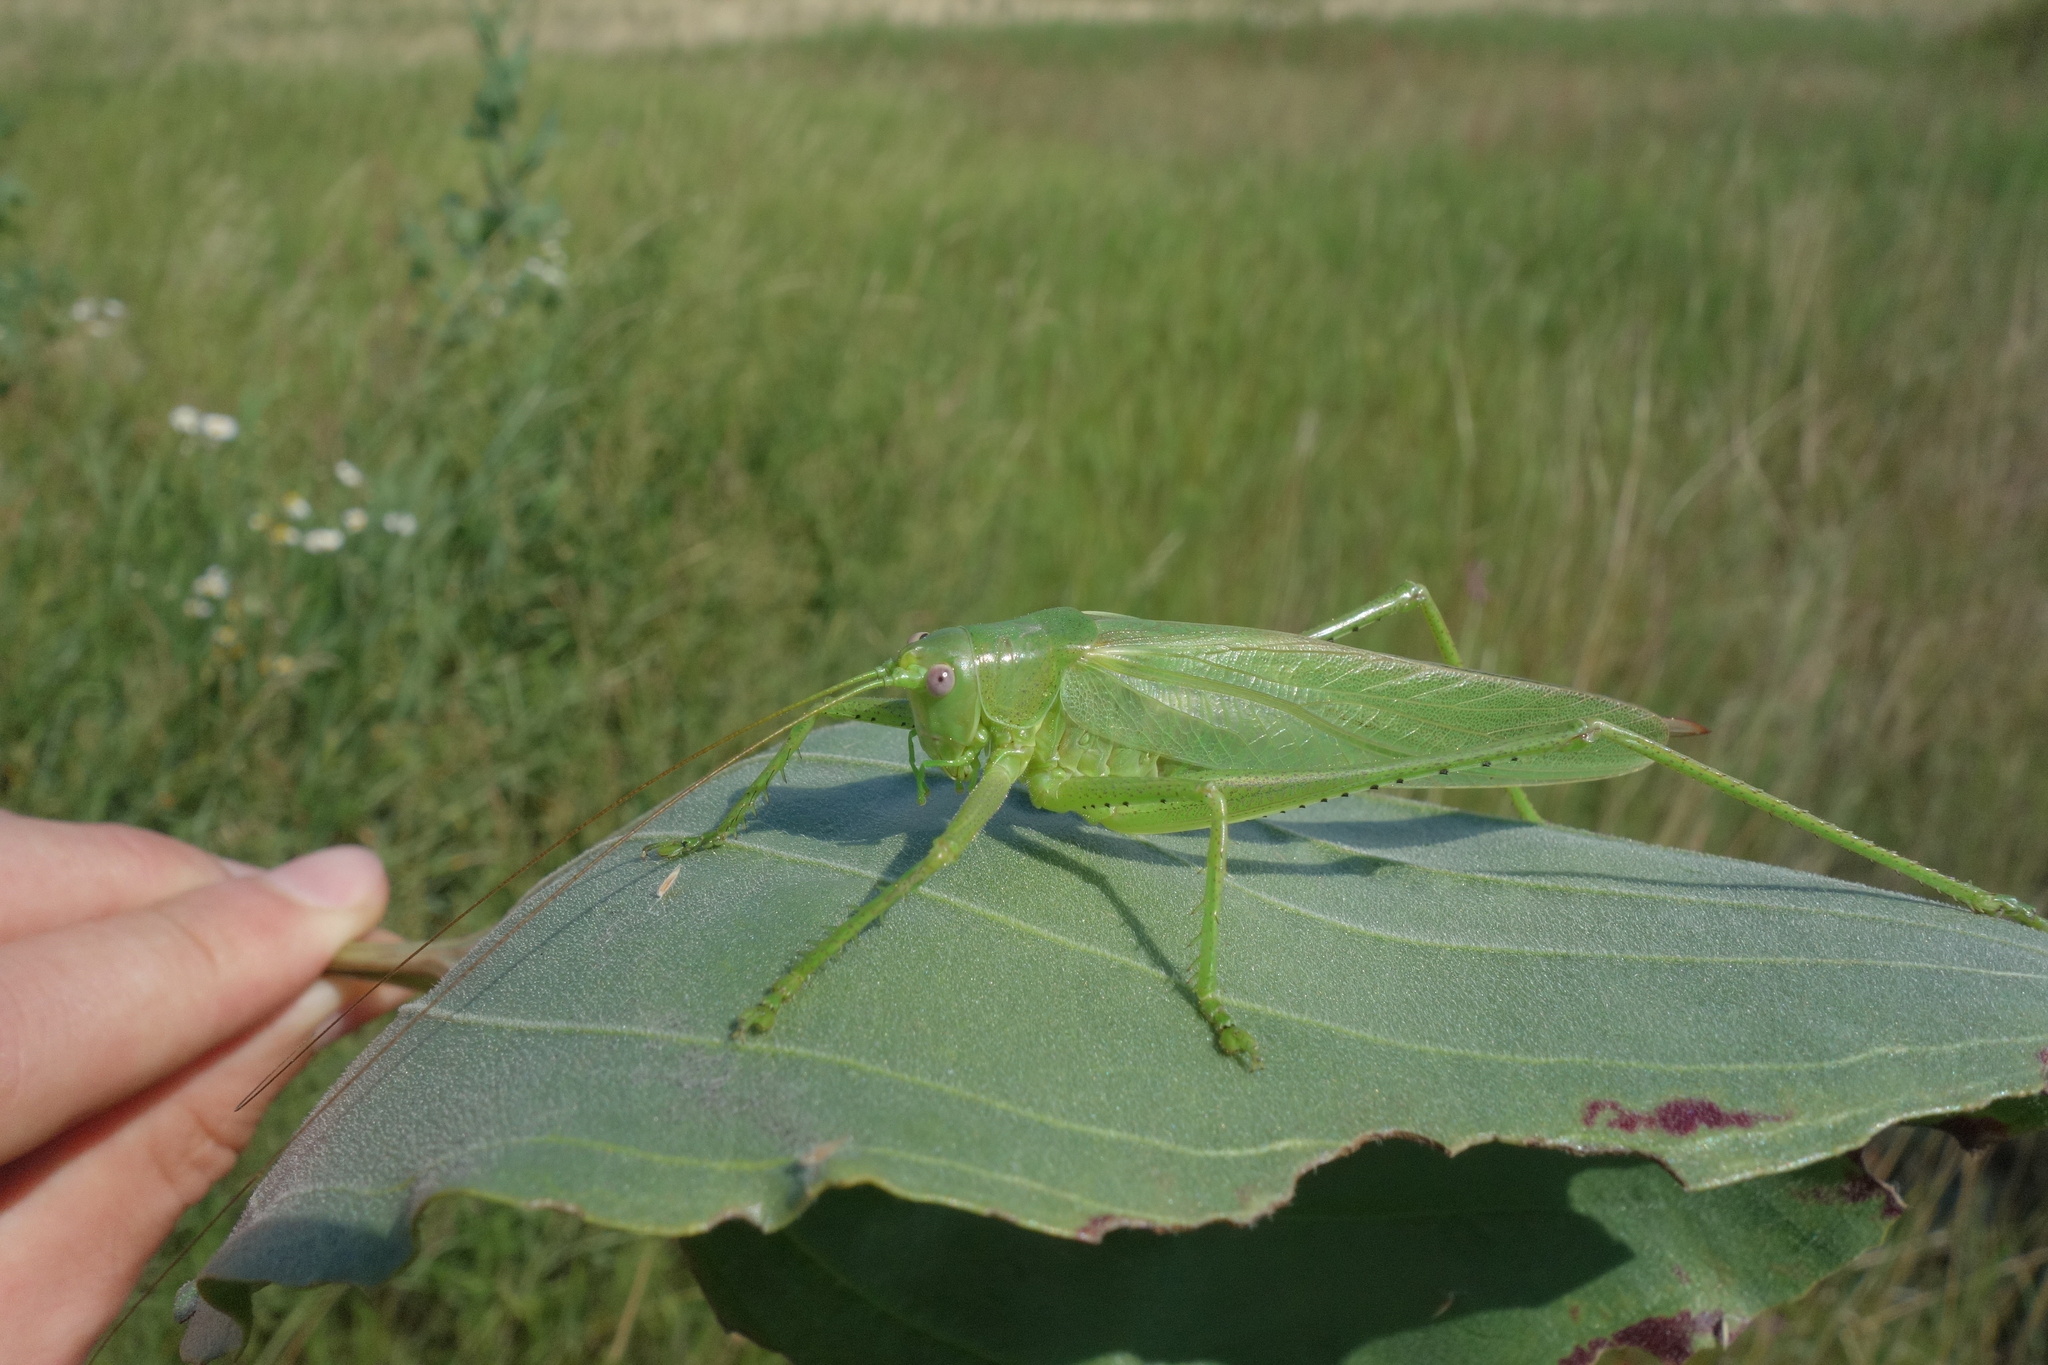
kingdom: Animalia
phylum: Arthropoda
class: Insecta
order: Orthoptera
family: Tettigoniidae
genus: Tettigonia
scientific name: Tettigonia caudata
